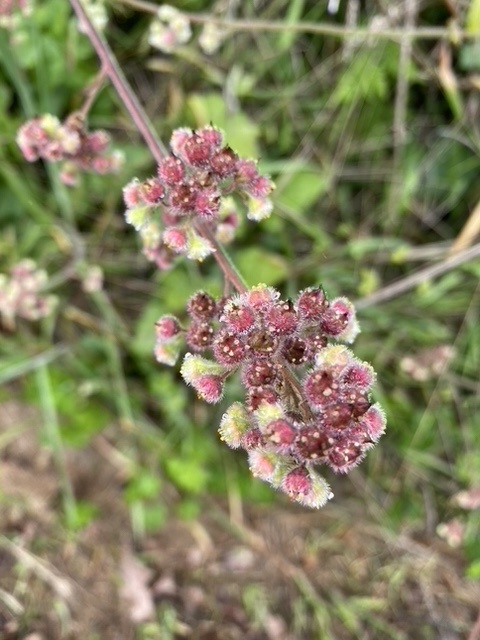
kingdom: Plantae
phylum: Tracheophyta
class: Magnoliopsida
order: Saxifragales
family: Saxifragaceae
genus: Heuchera
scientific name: Heuchera pilosissima
